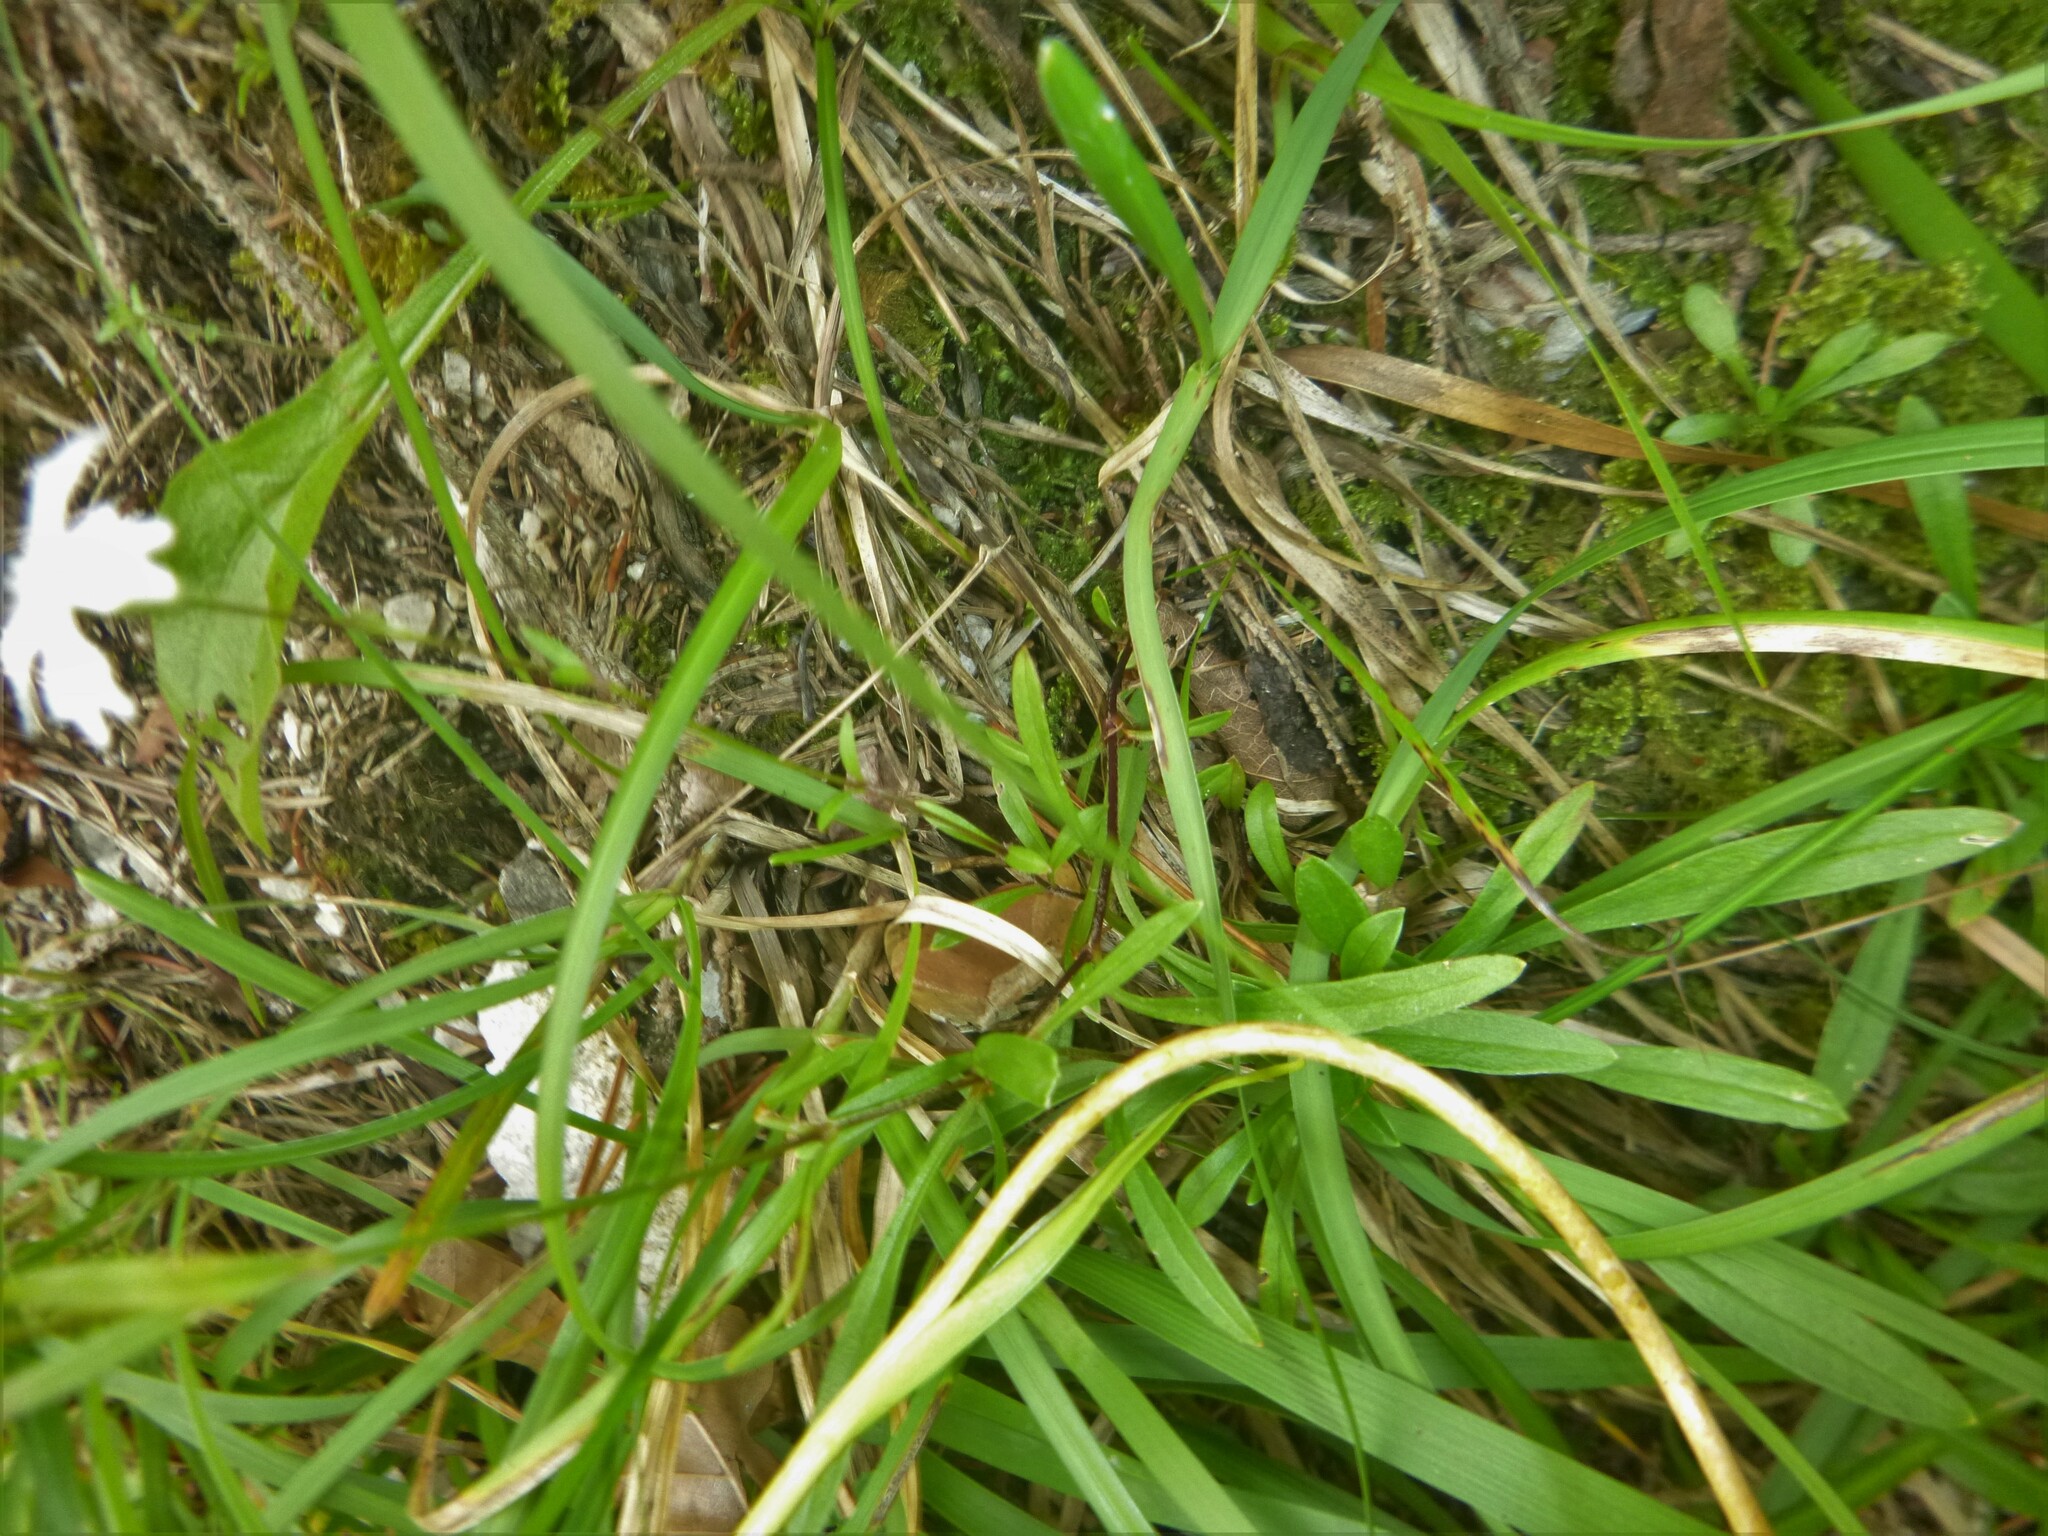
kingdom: Plantae
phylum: Tracheophyta
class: Magnoliopsida
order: Caryophyllales
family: Caryophyllaceae
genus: Heliosperma
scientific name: Heliosperma alpestre
